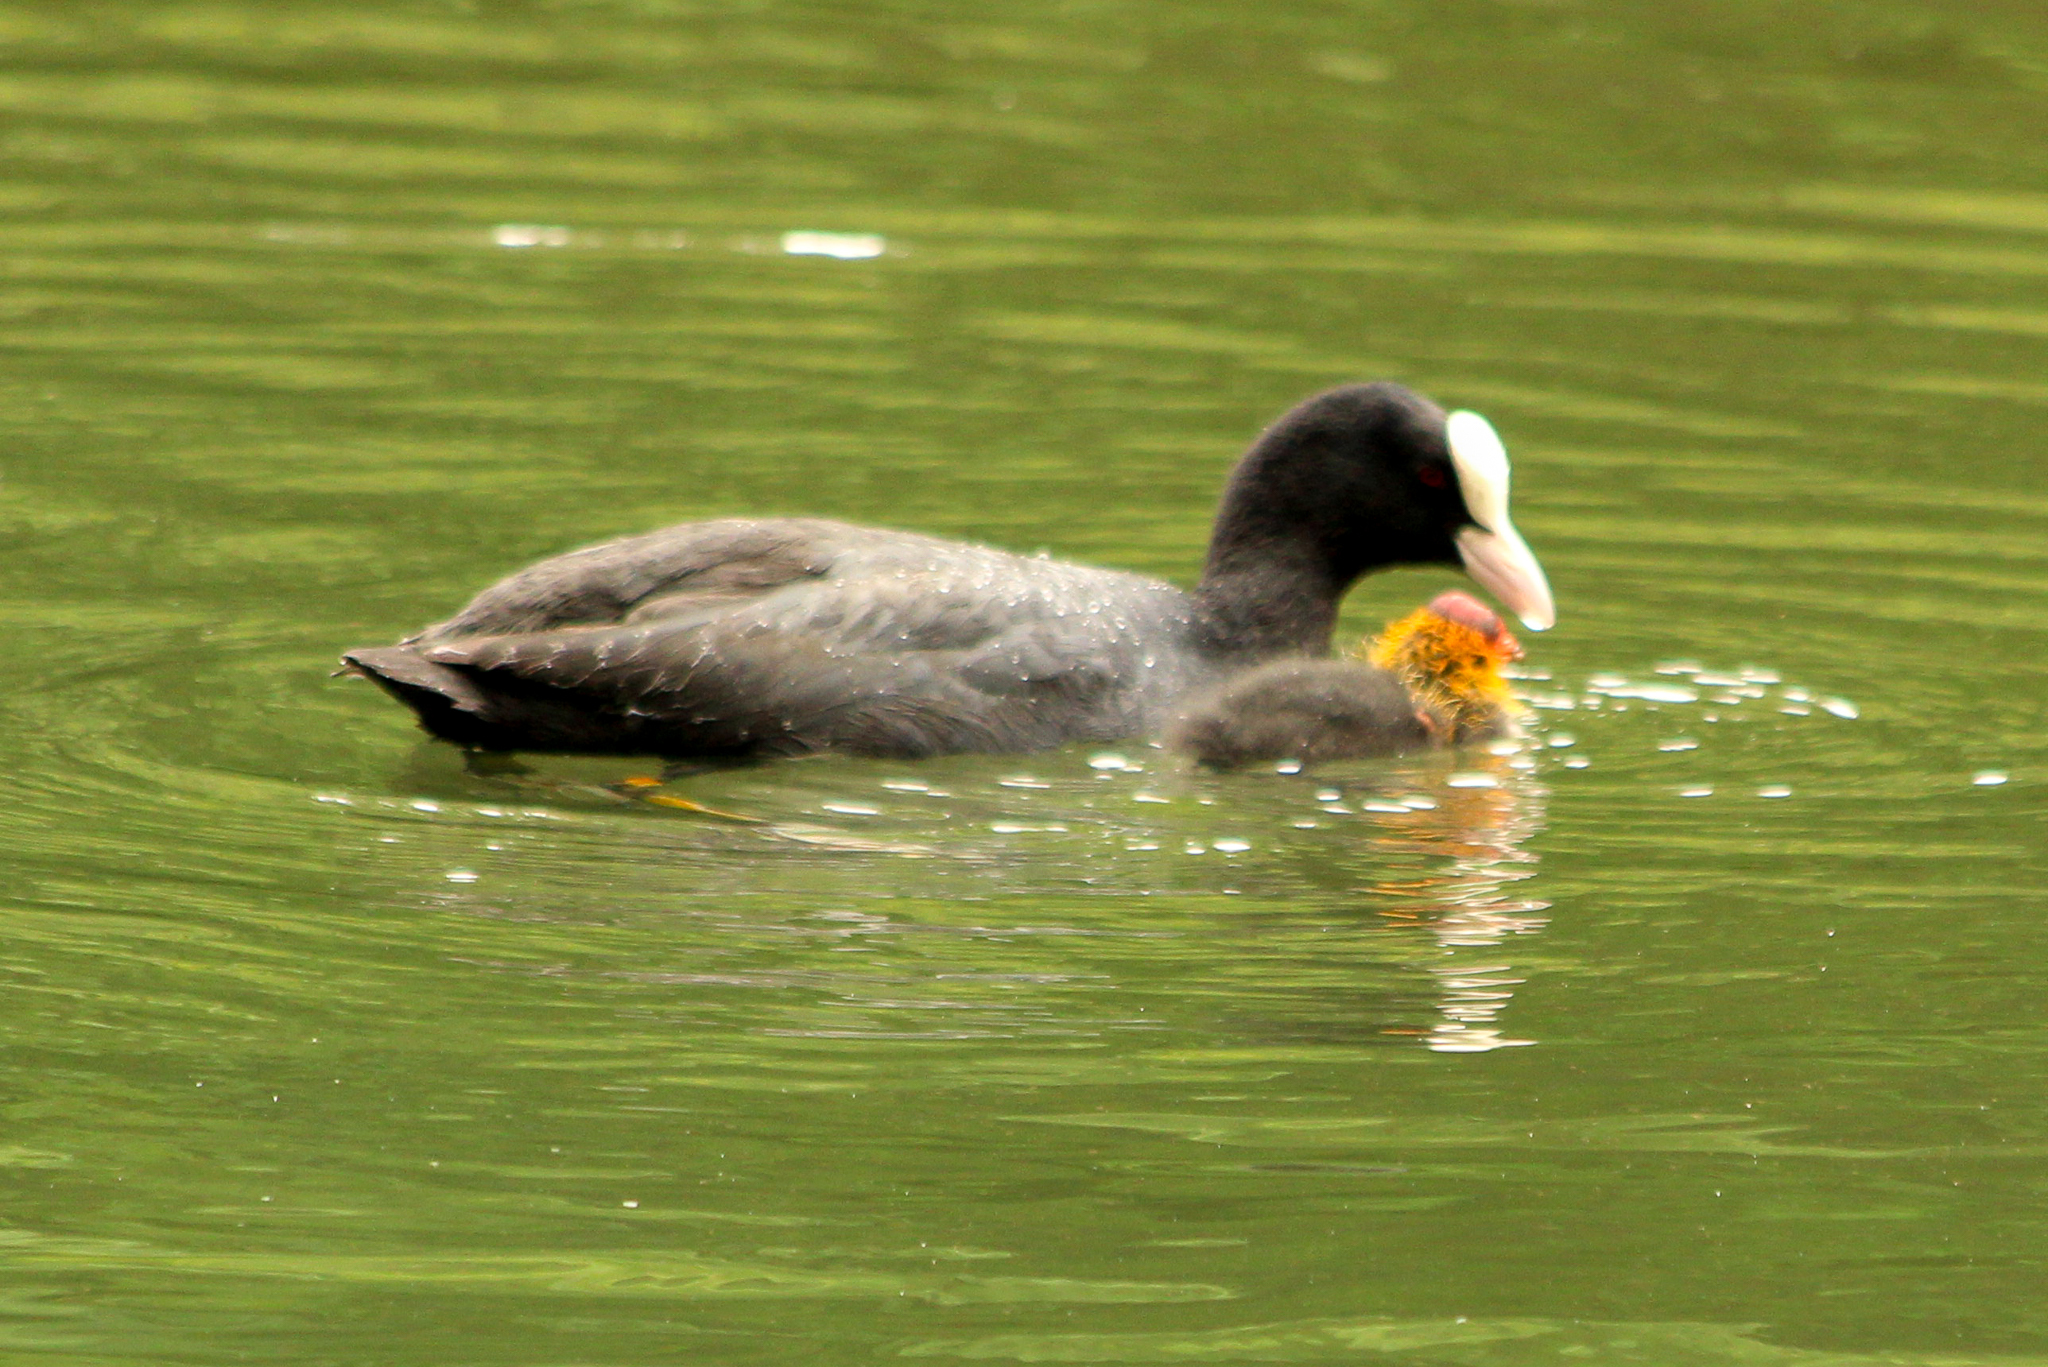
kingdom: Animalia
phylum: Chordata
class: Aves
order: Gruiformes
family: Rallidae
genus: Fulica
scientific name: Fulica atra
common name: Eurasian coot
